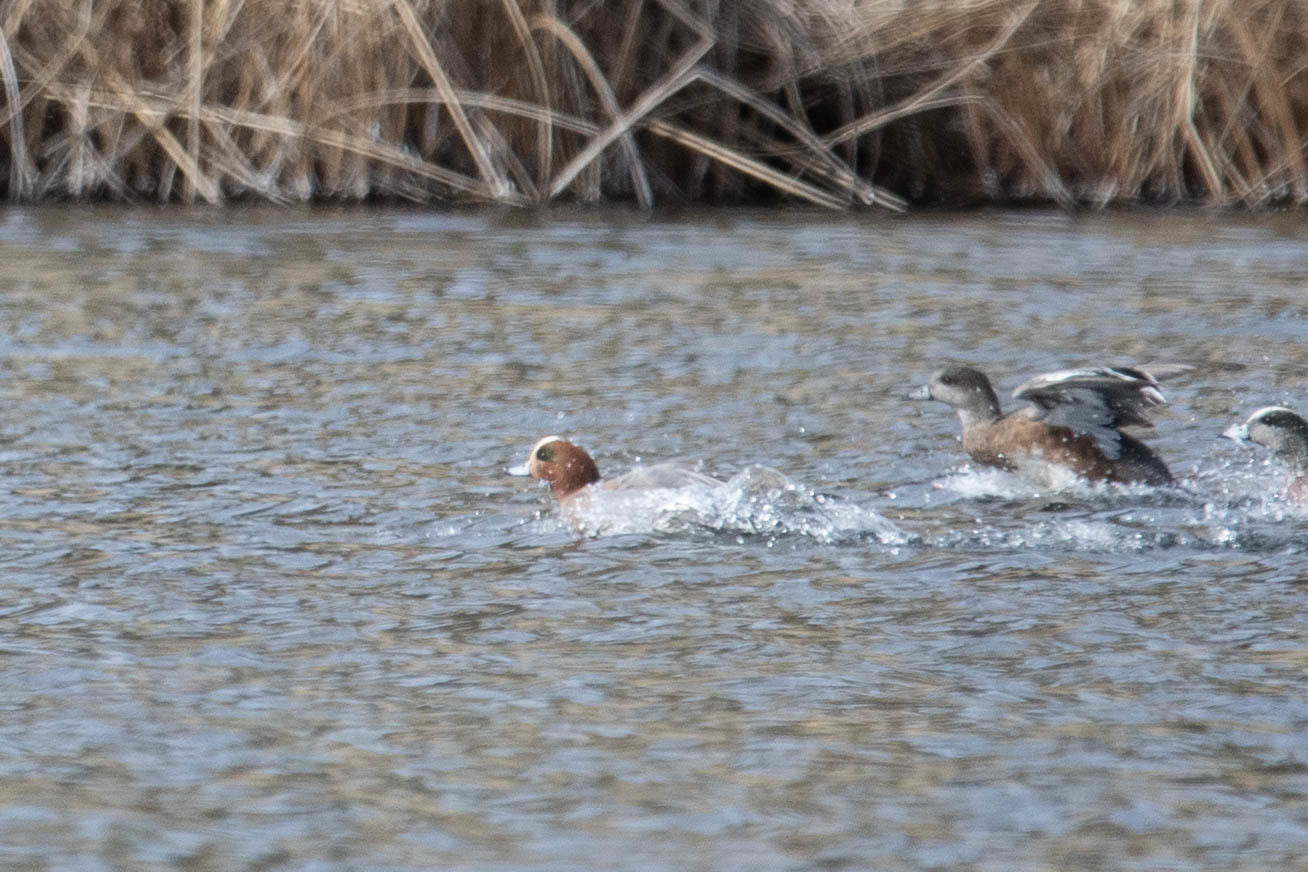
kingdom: Animalia
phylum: Chordata
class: Aves
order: Anseriformes
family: Anatidae
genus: Mareca
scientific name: Mareca penelope
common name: Eurasian wigeon
